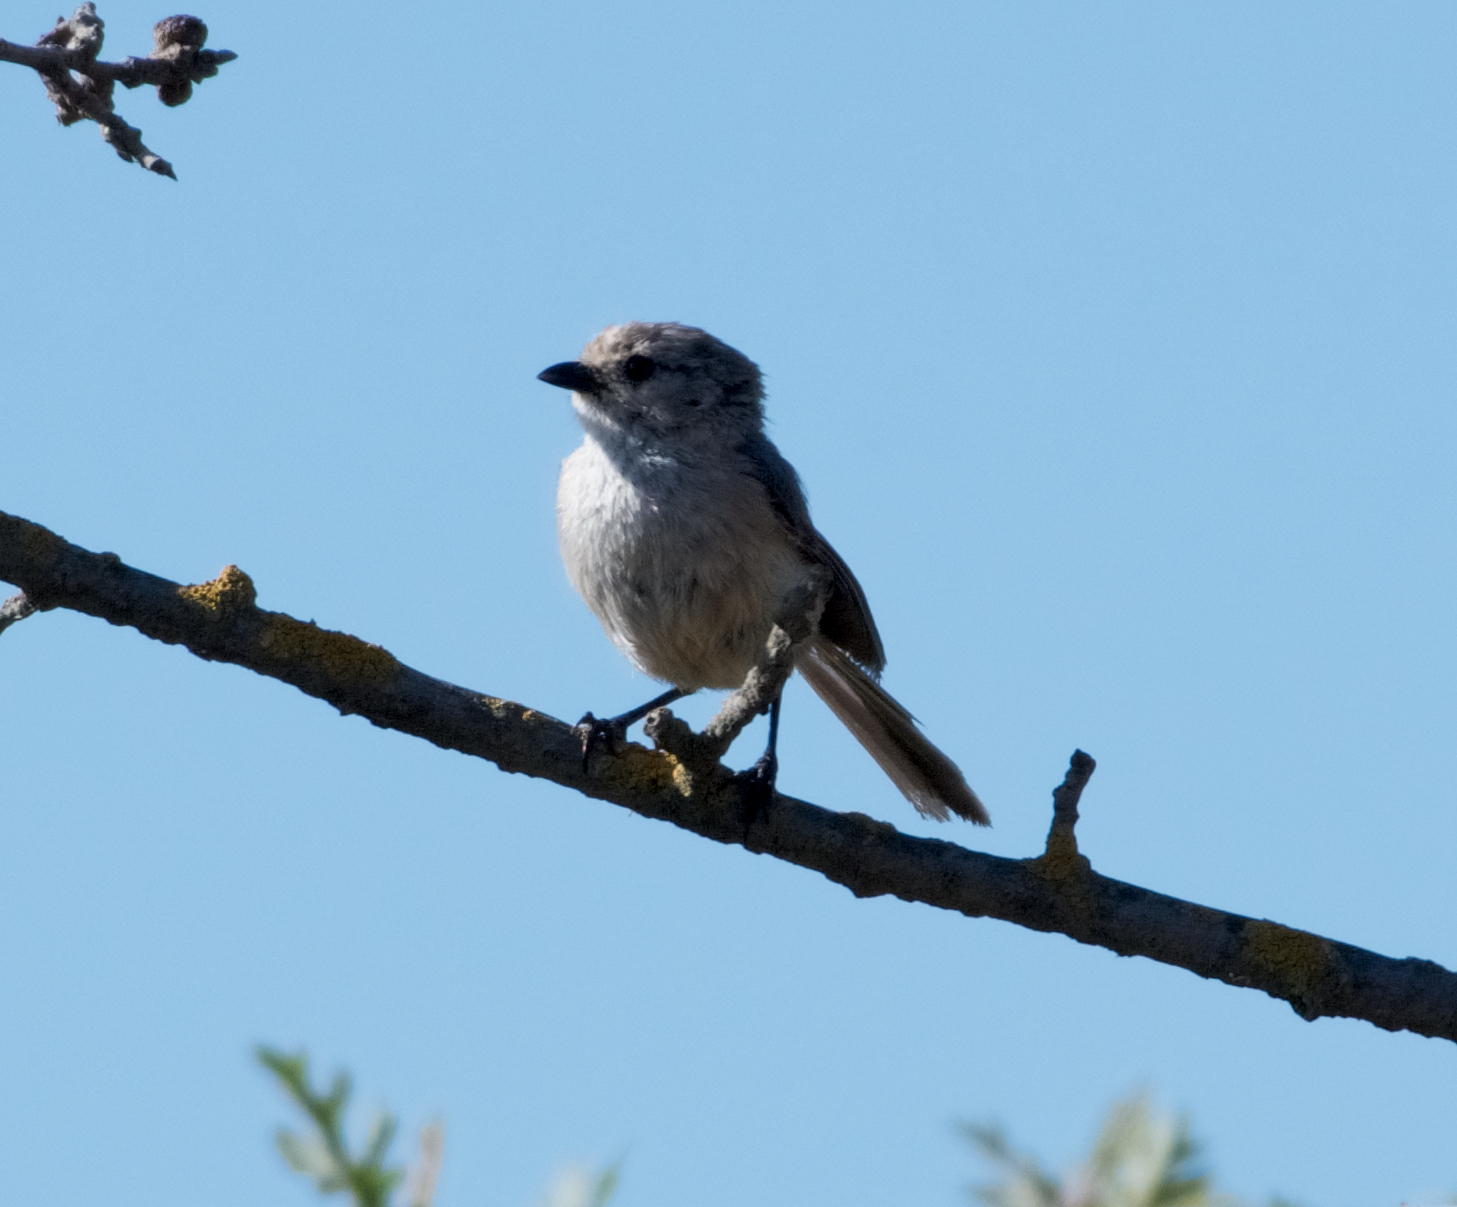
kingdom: Animalia
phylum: Chordata
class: Aves
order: Passeriformes
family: Aegithalidae
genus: Psaltriparus
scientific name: Psaltriparus minimus
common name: American bushtit
